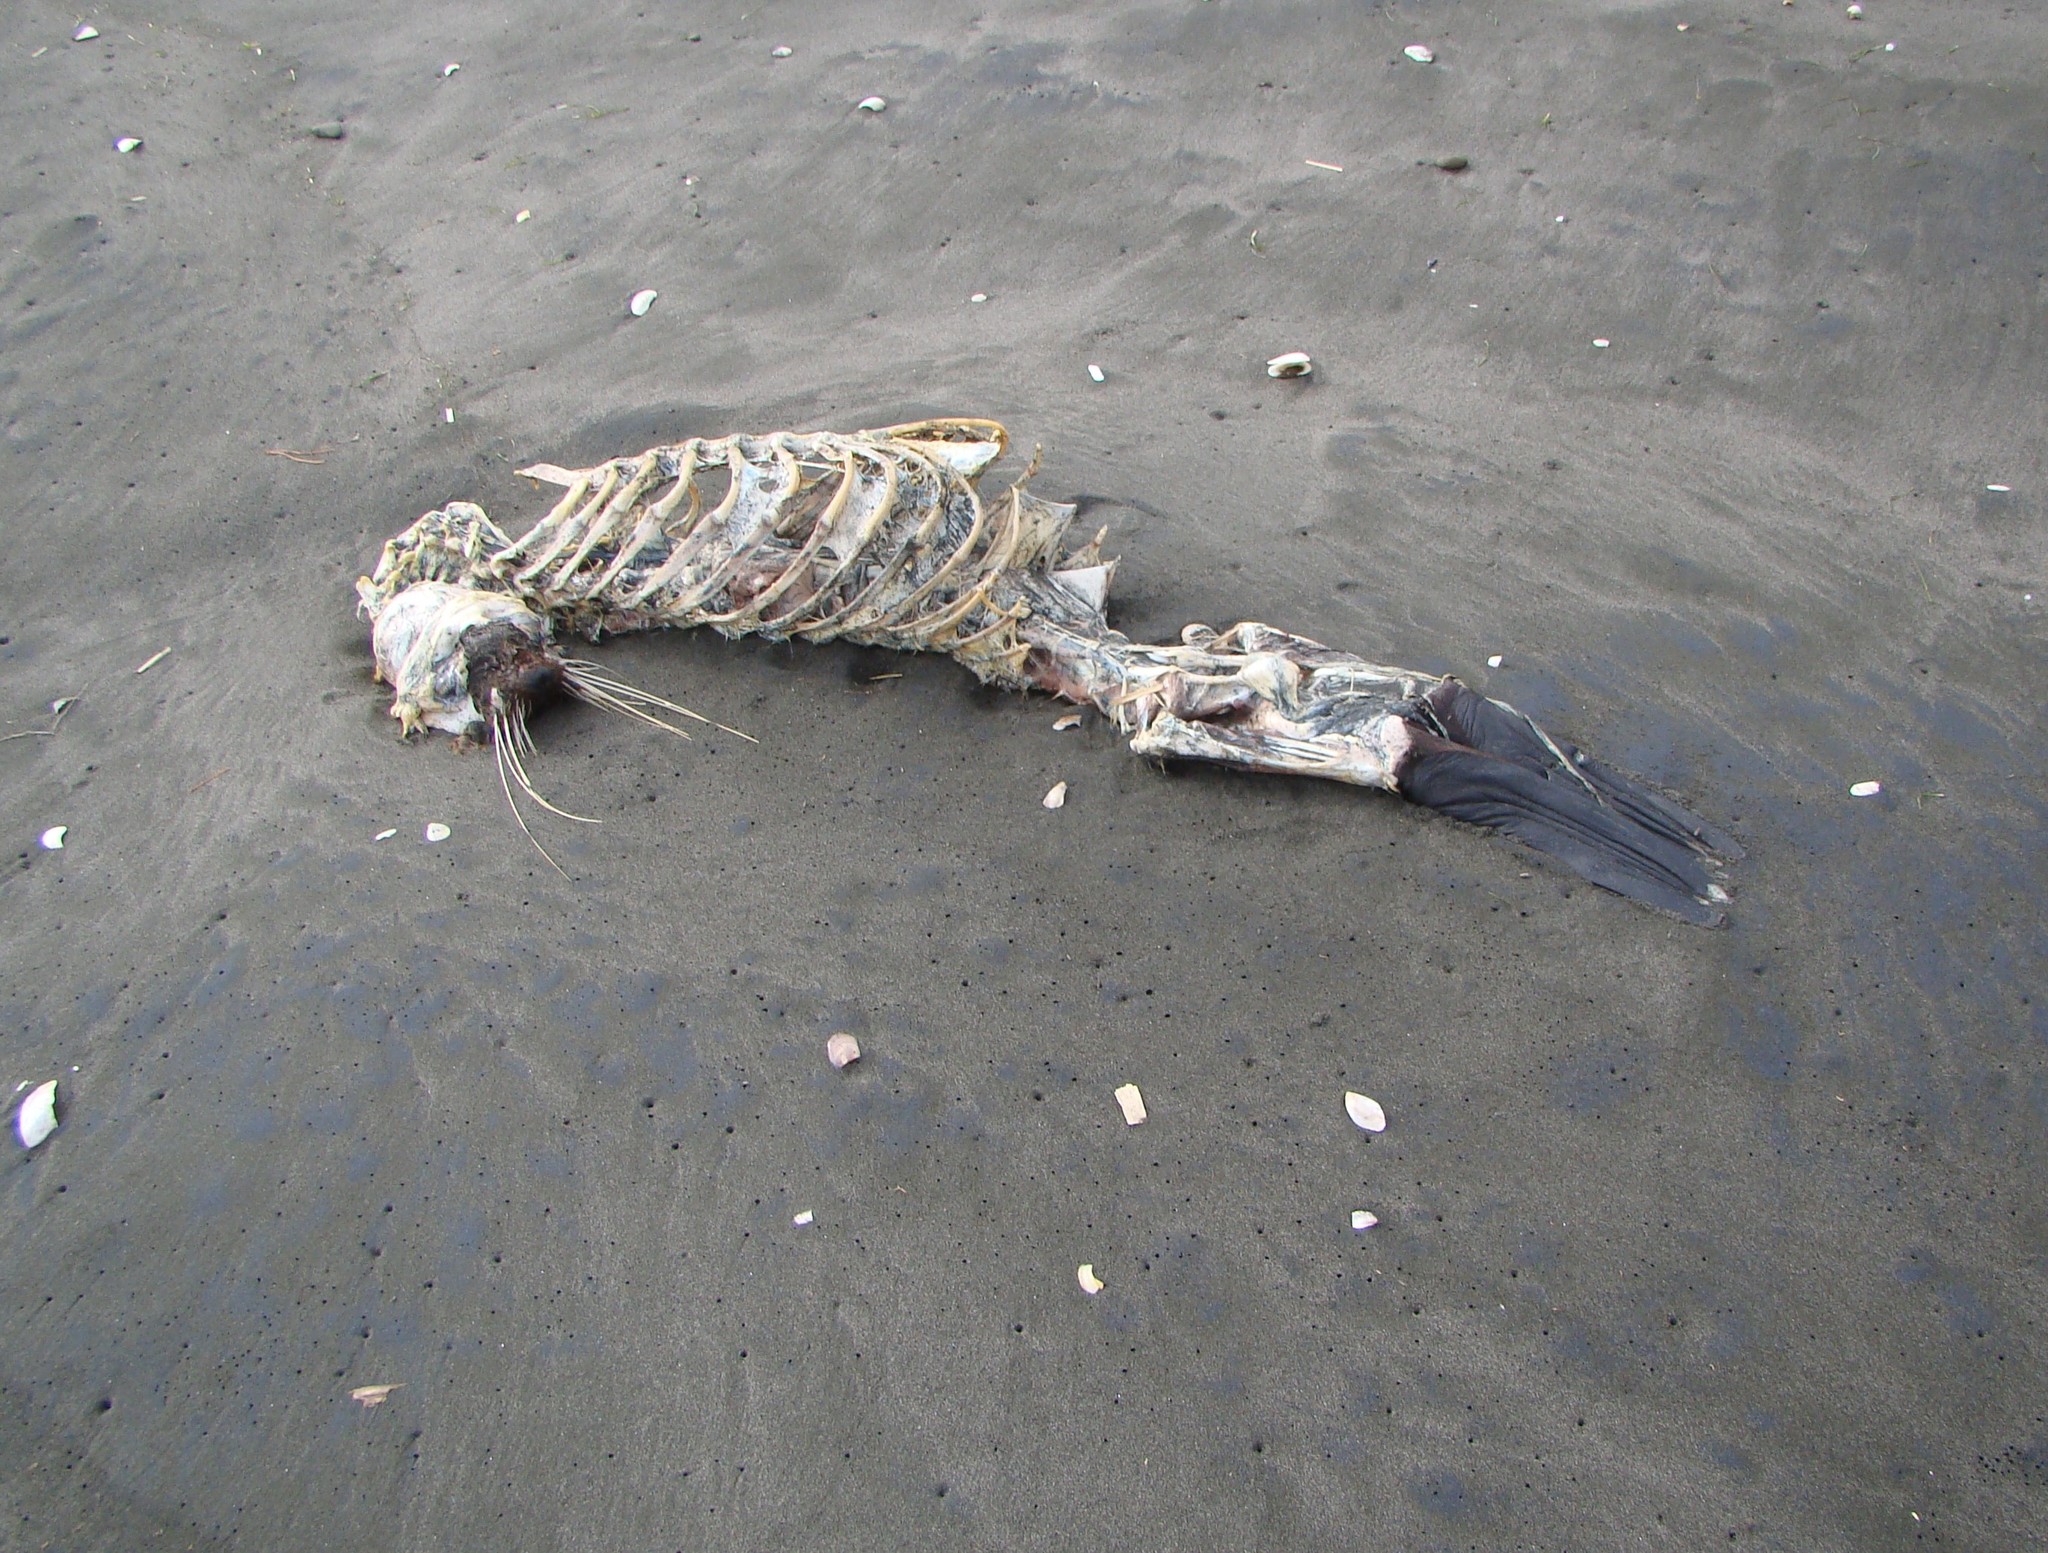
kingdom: Animalia
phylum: Chordata
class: Mammalia
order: Carnivora
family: Otariidae
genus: Arctocephalus
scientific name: Arctocephalus forsteri
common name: New zealand fur seal
